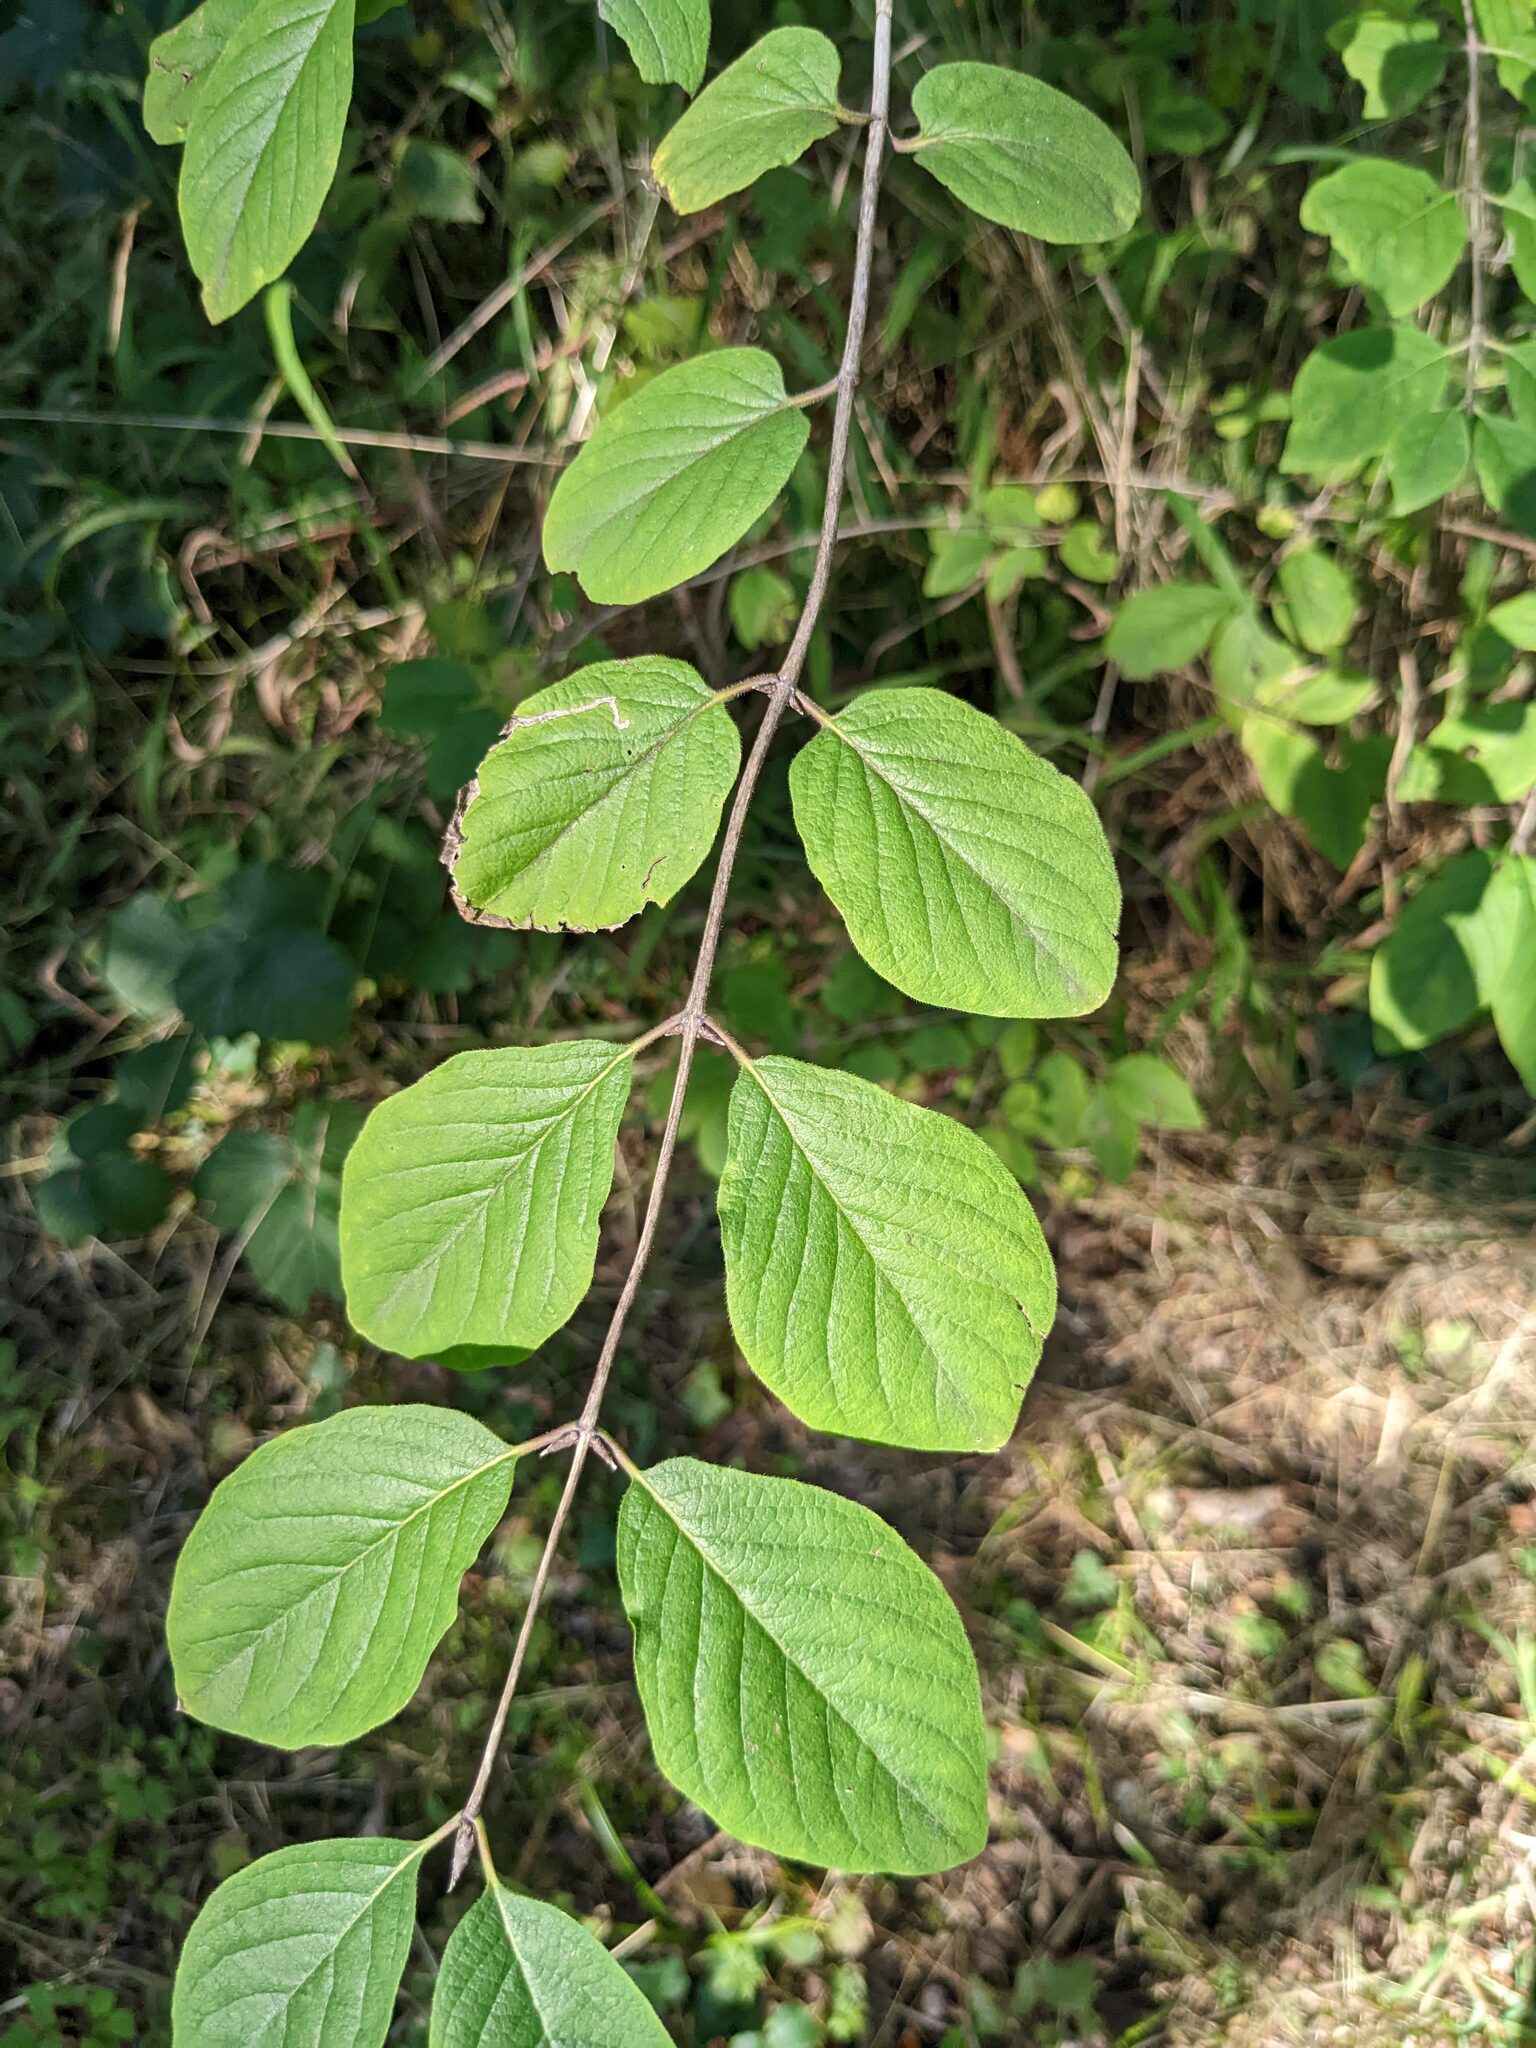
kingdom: Plantae
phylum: Tracheophyta
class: Magnoliopsida
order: Dipsacales
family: Caprifoliaceae
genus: Lonicera
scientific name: Lonicera xylosteum
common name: Fly honeysuckle
